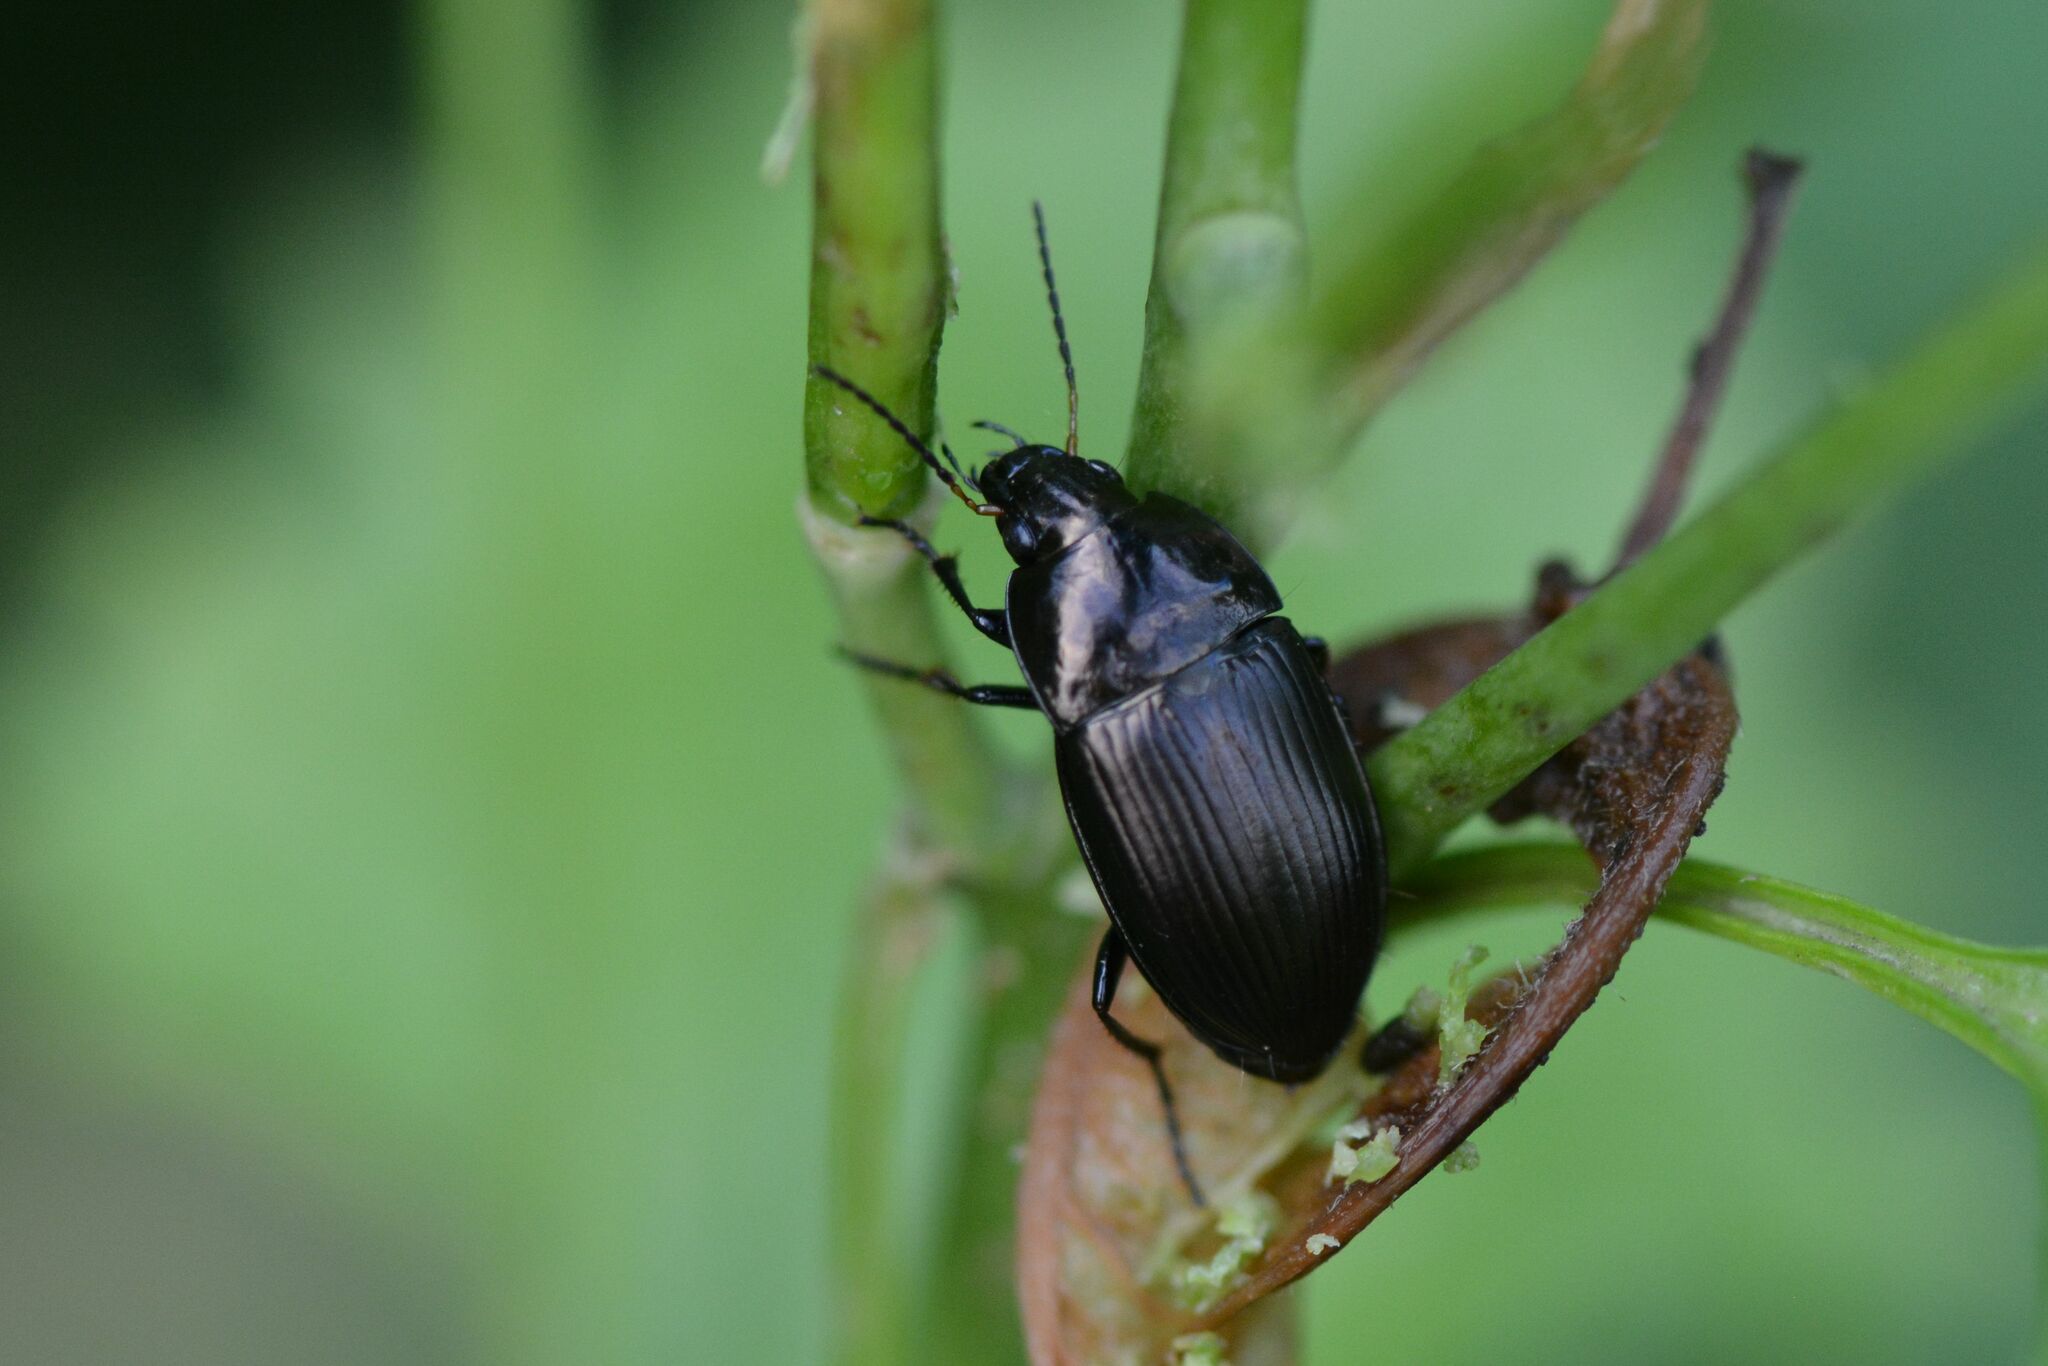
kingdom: Animalia
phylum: Arthropoda
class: Insecta
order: Coleoptera
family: Carabidae
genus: Amara
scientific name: Amara ovata
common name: Ovate harp ground beetle
